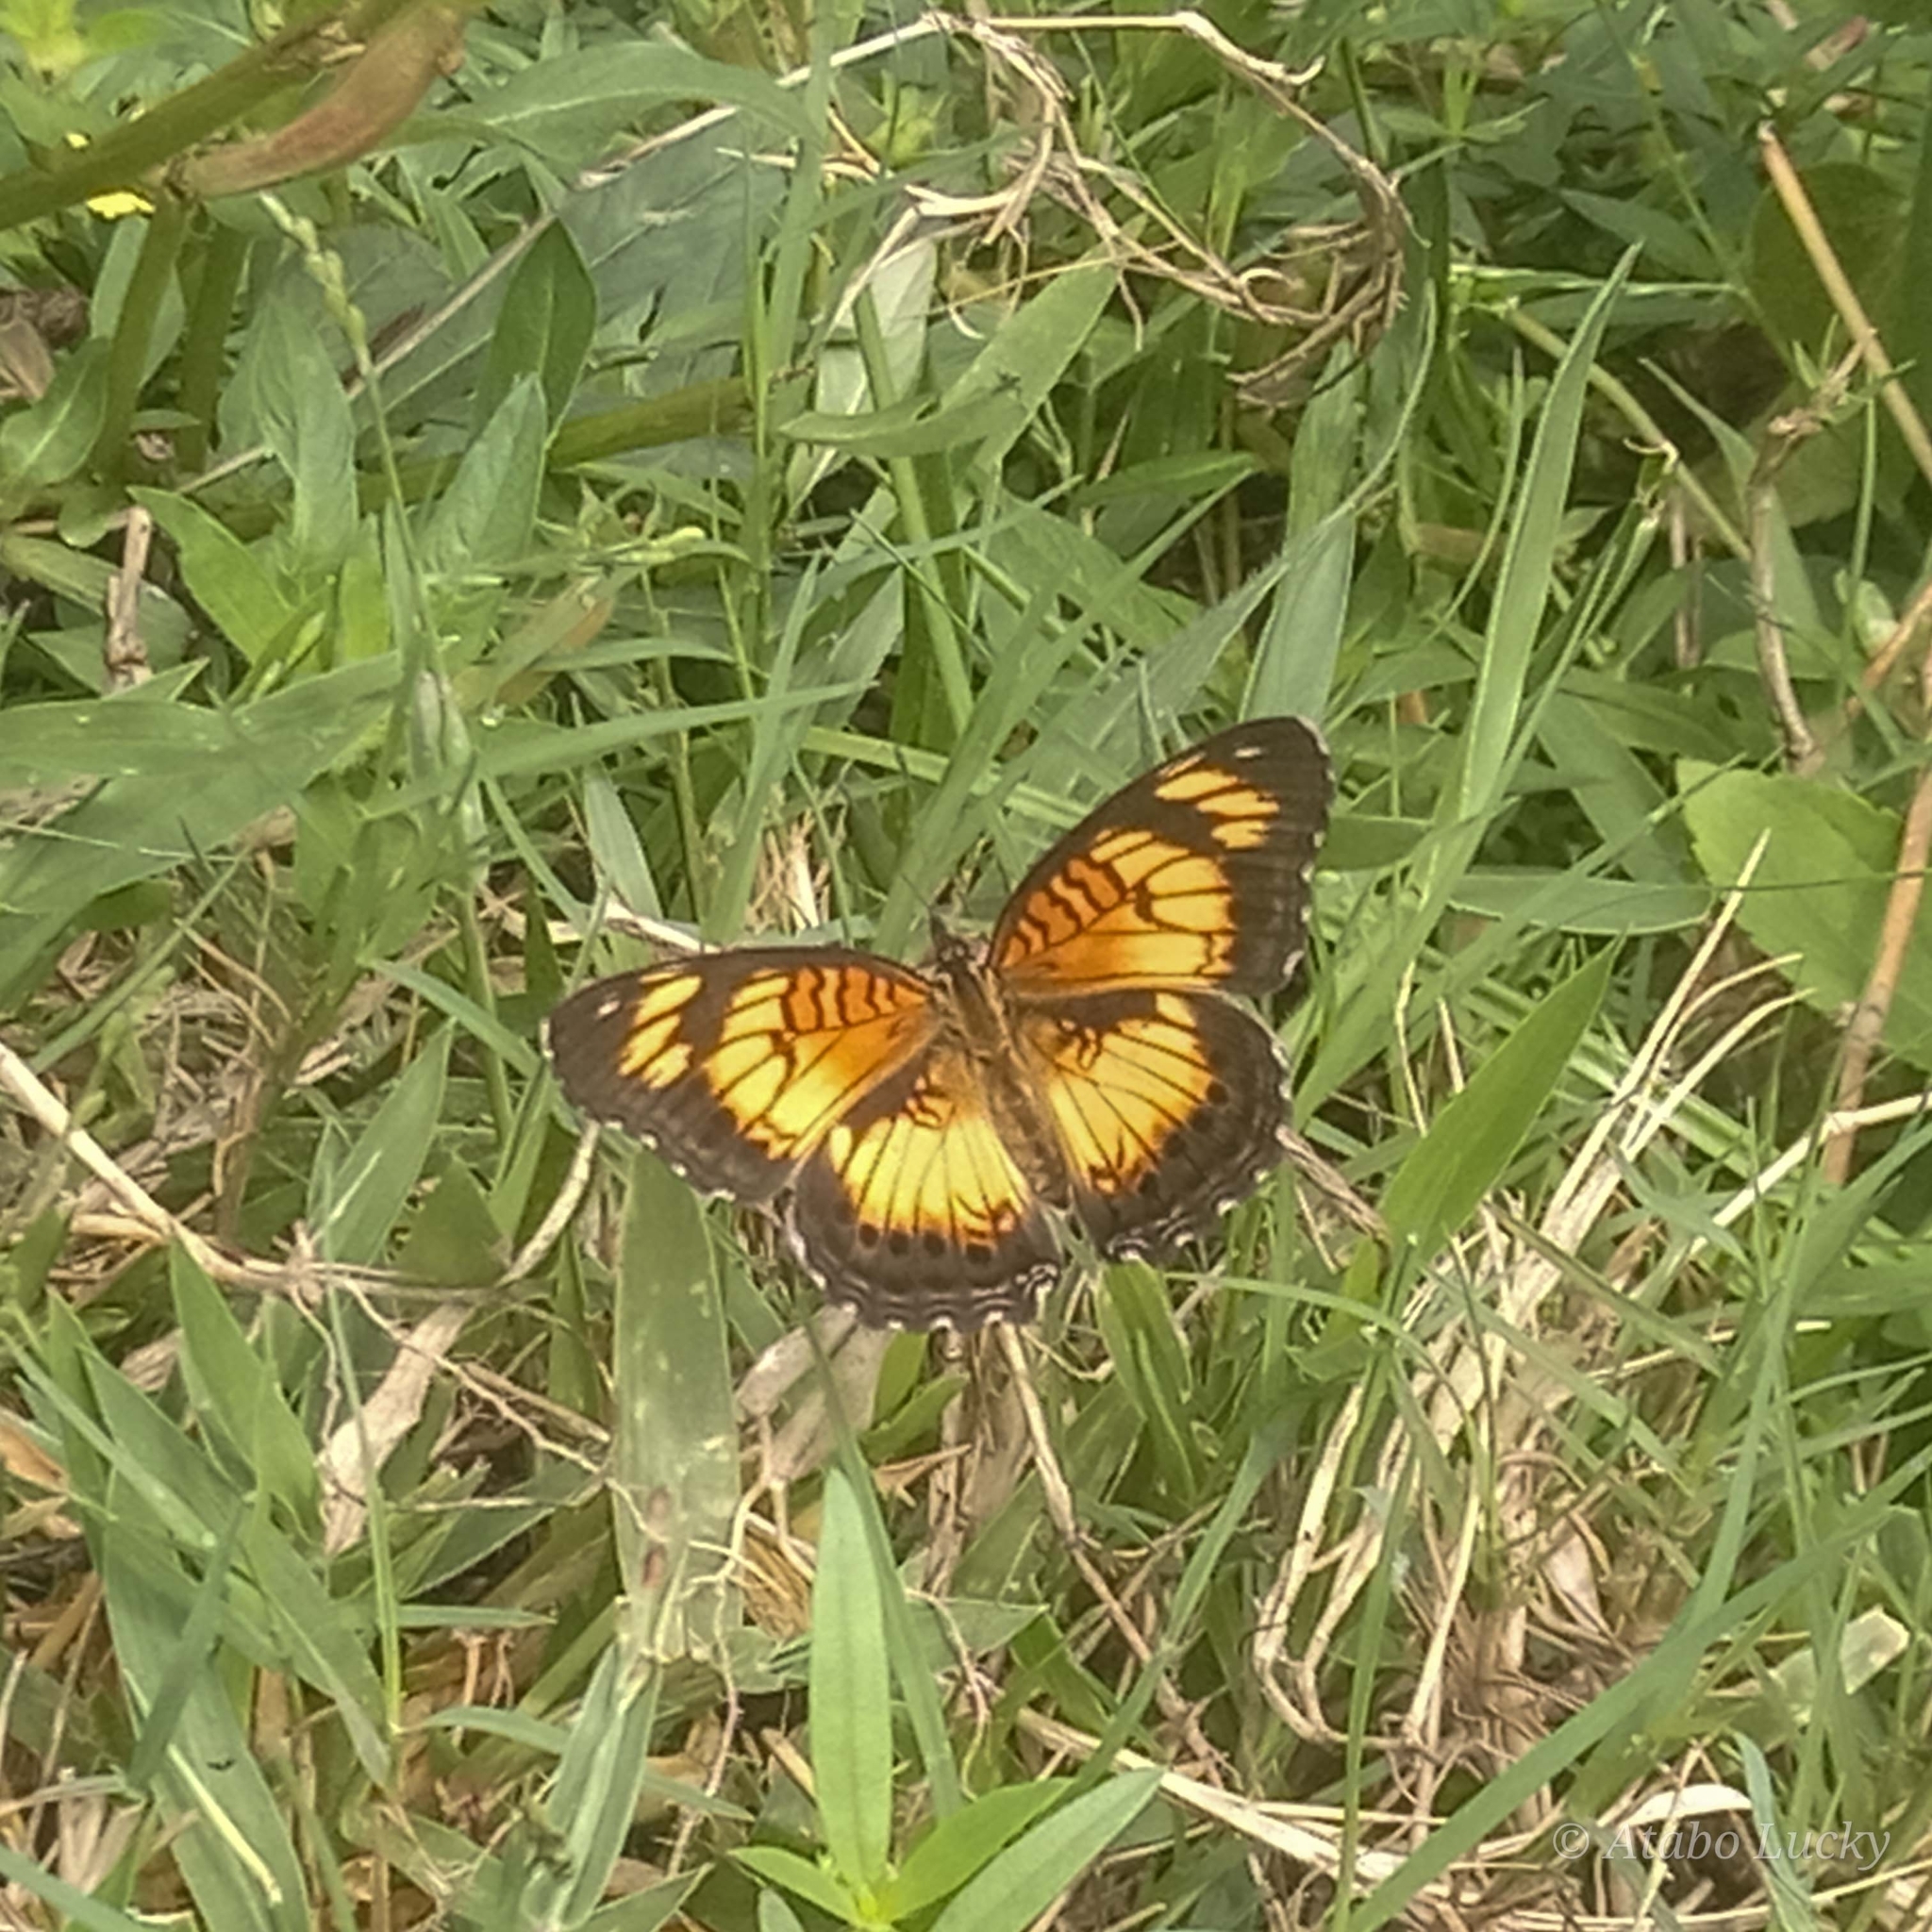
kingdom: Animalia
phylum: Arthropoda
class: Insecta
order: Lepidoptera
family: Nymphalidae
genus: Junonia
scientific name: Junonia sophia
